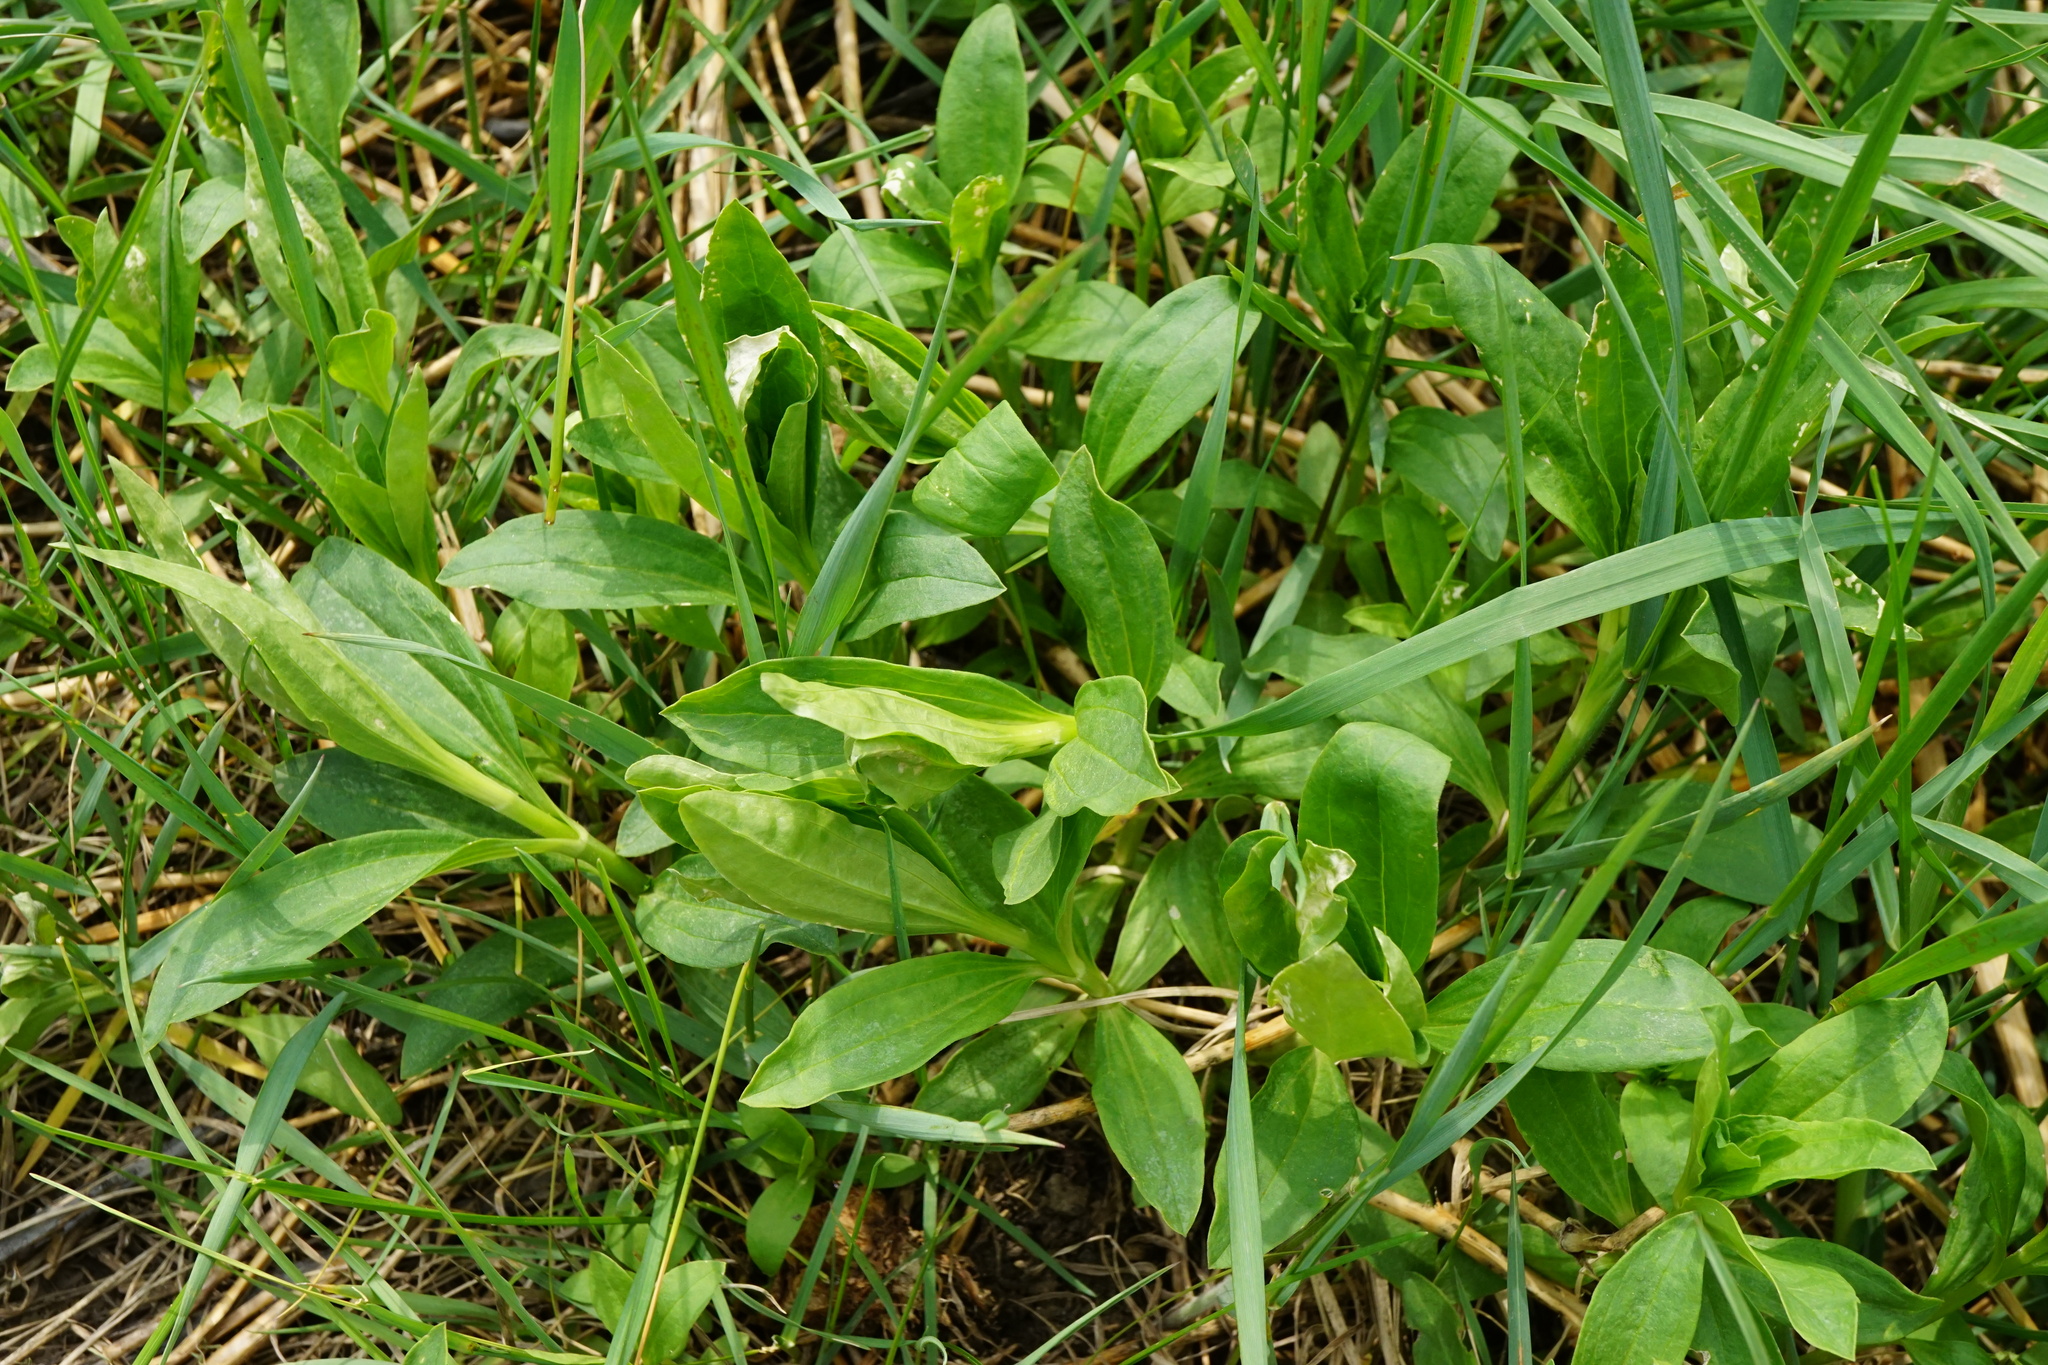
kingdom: Plantae
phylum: Tracheophyta
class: Magnoliopsida
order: Caryophyllales
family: Caryophyllaceae
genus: Saponaria
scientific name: Saponaria officinalis
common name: Soapwort
